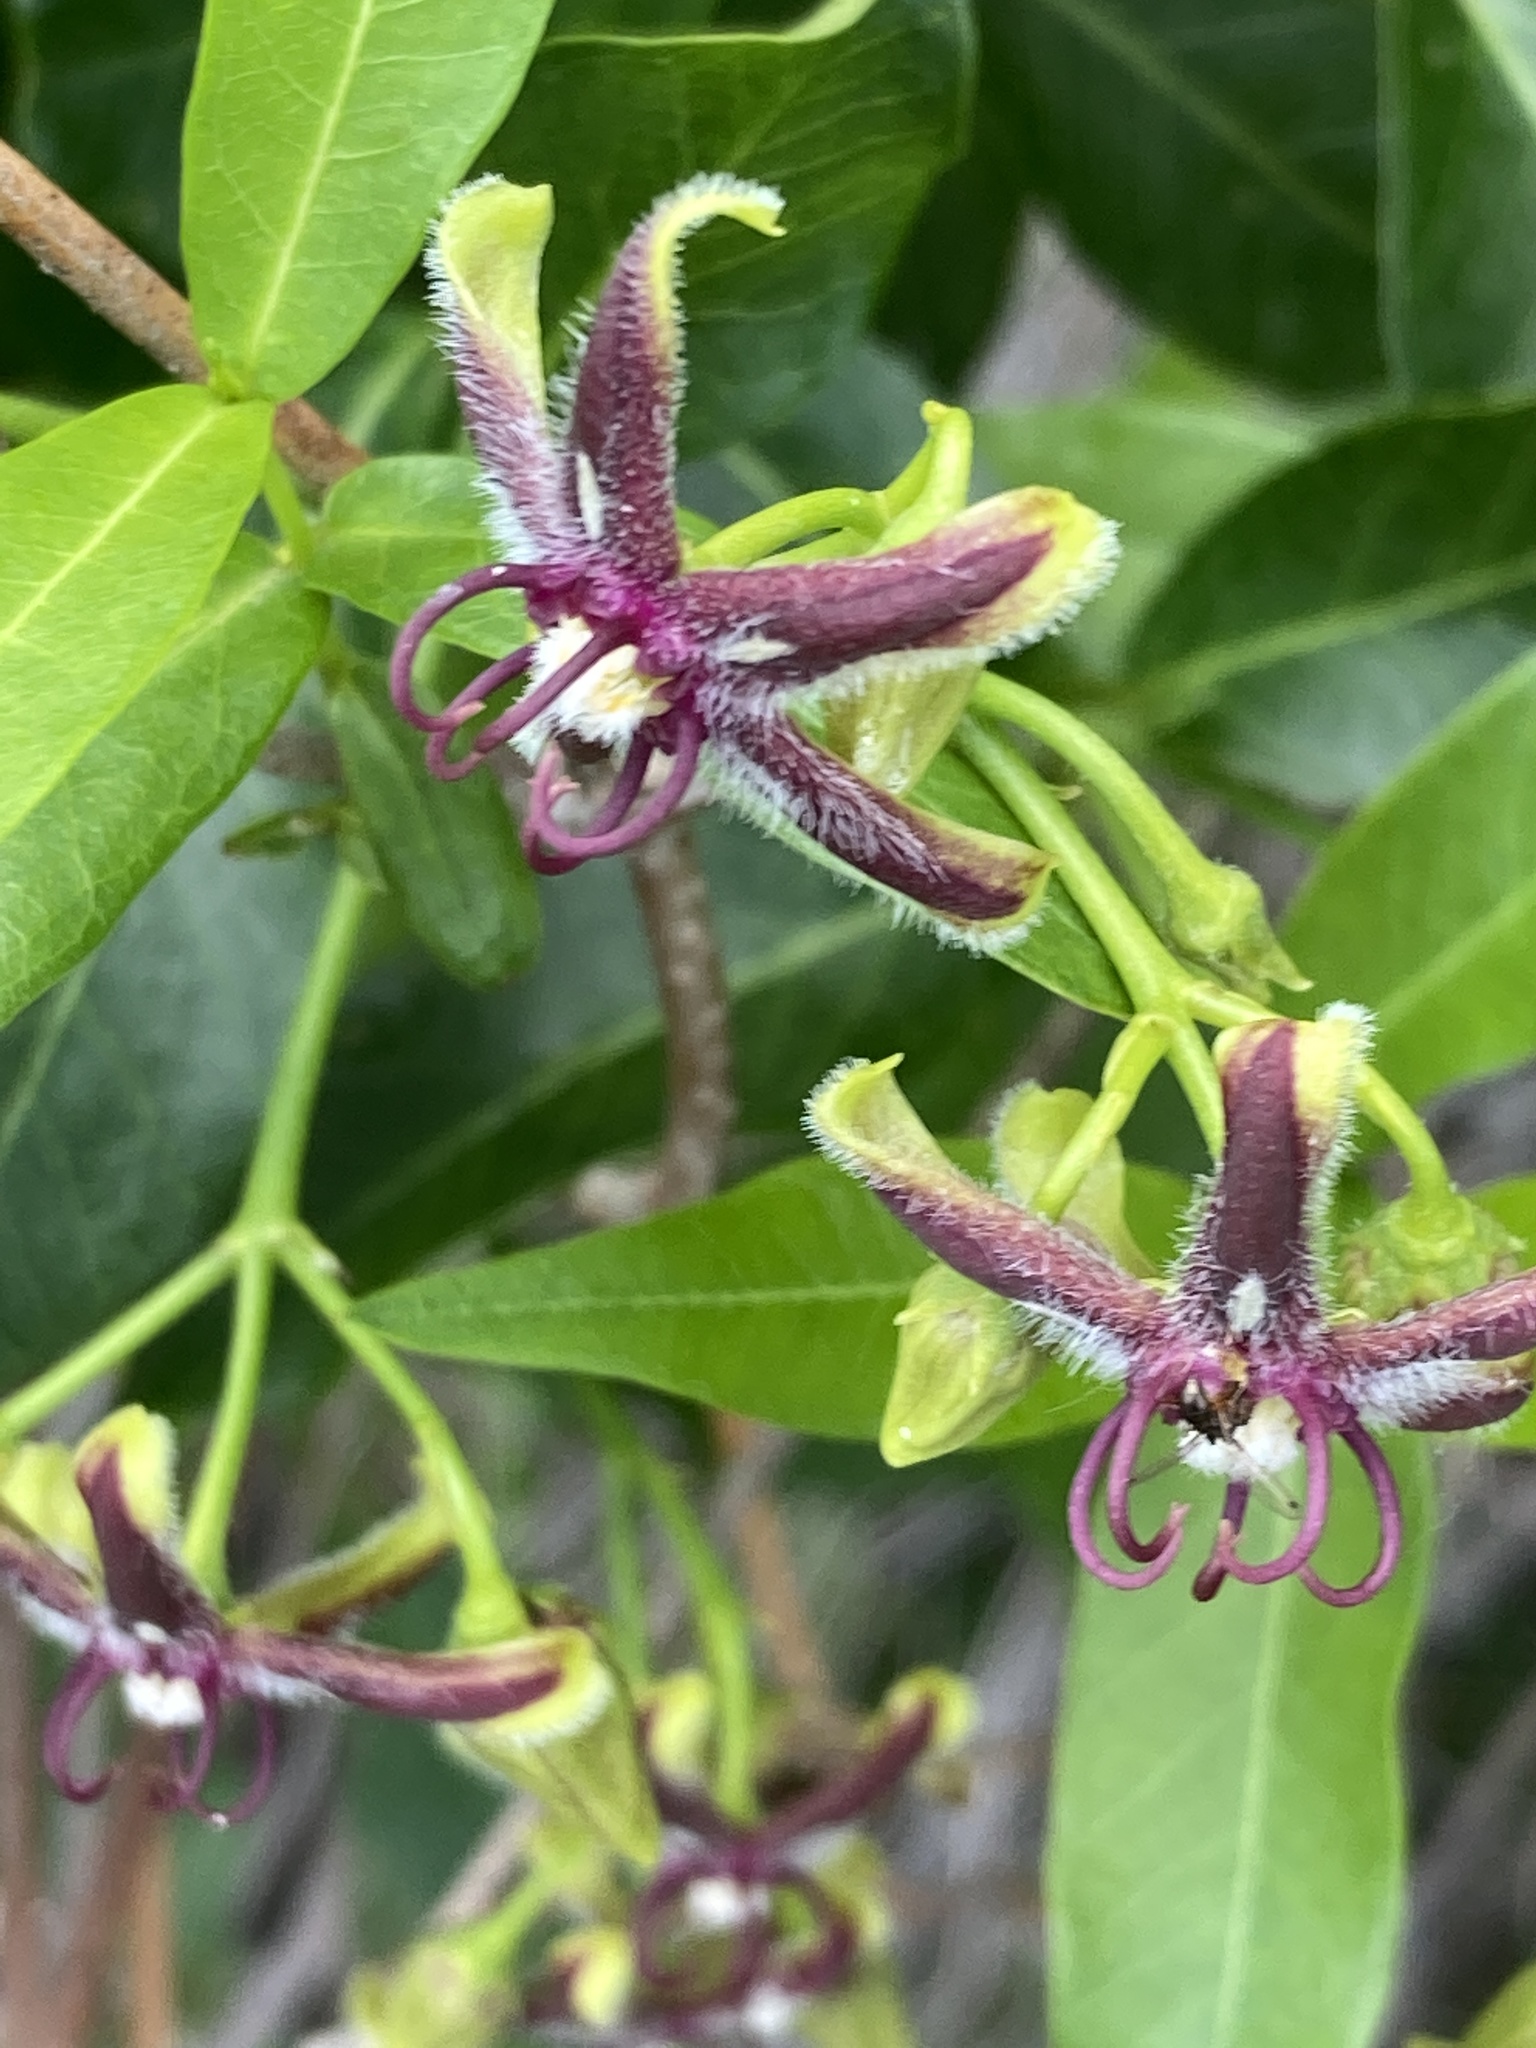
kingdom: Plantae
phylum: Tracheophyta
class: Magnoliopsida
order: Gentianales
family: Apocynaceae
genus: Periploca
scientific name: Periploca graeca
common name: Silkvine
